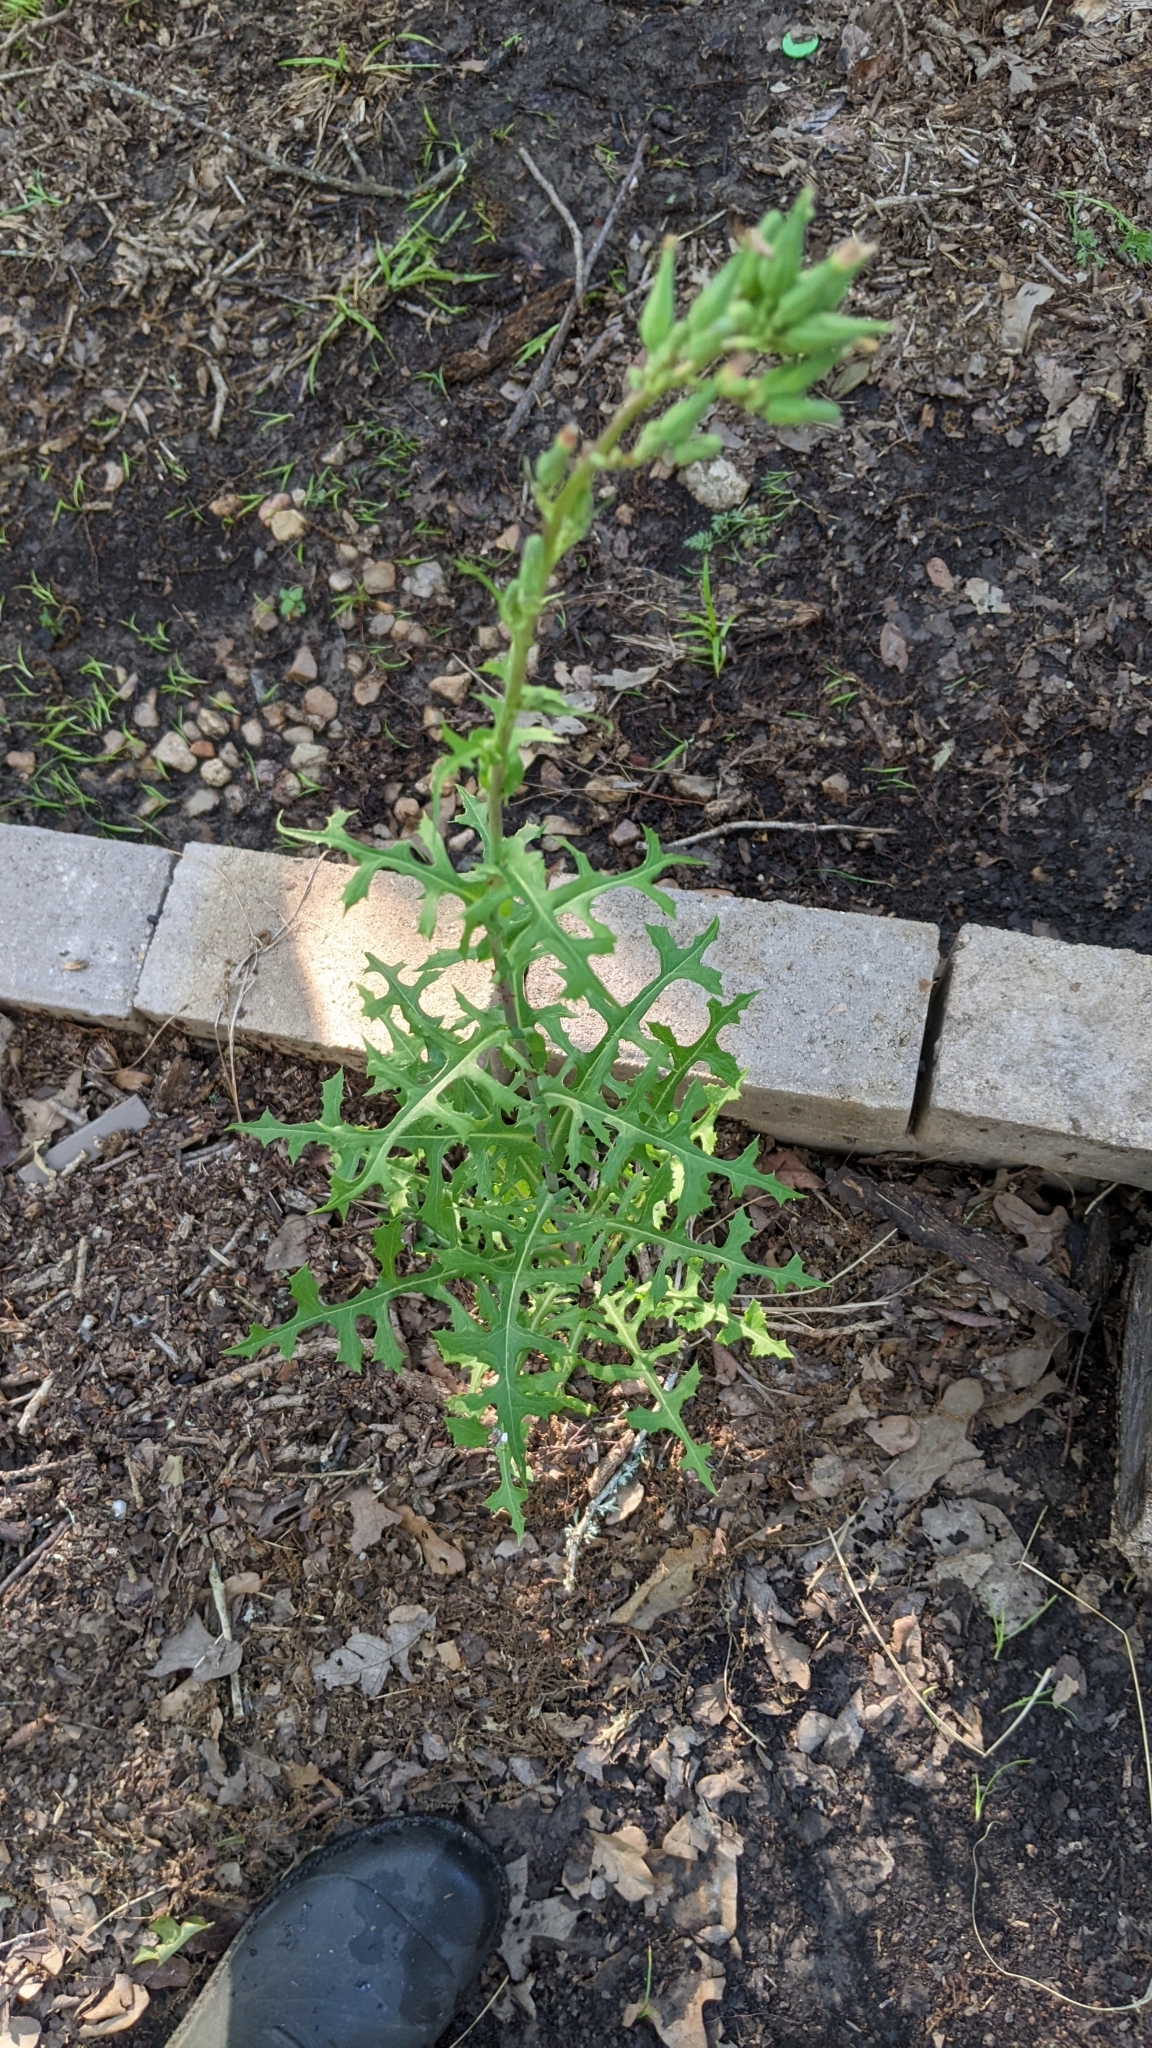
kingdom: Plantae
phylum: Tracheophyta
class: Magnoliopsida
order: Asterales
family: Asteraceae
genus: Lactuca
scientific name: Lactuca ludoviciana
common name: Louisiana lettuce
